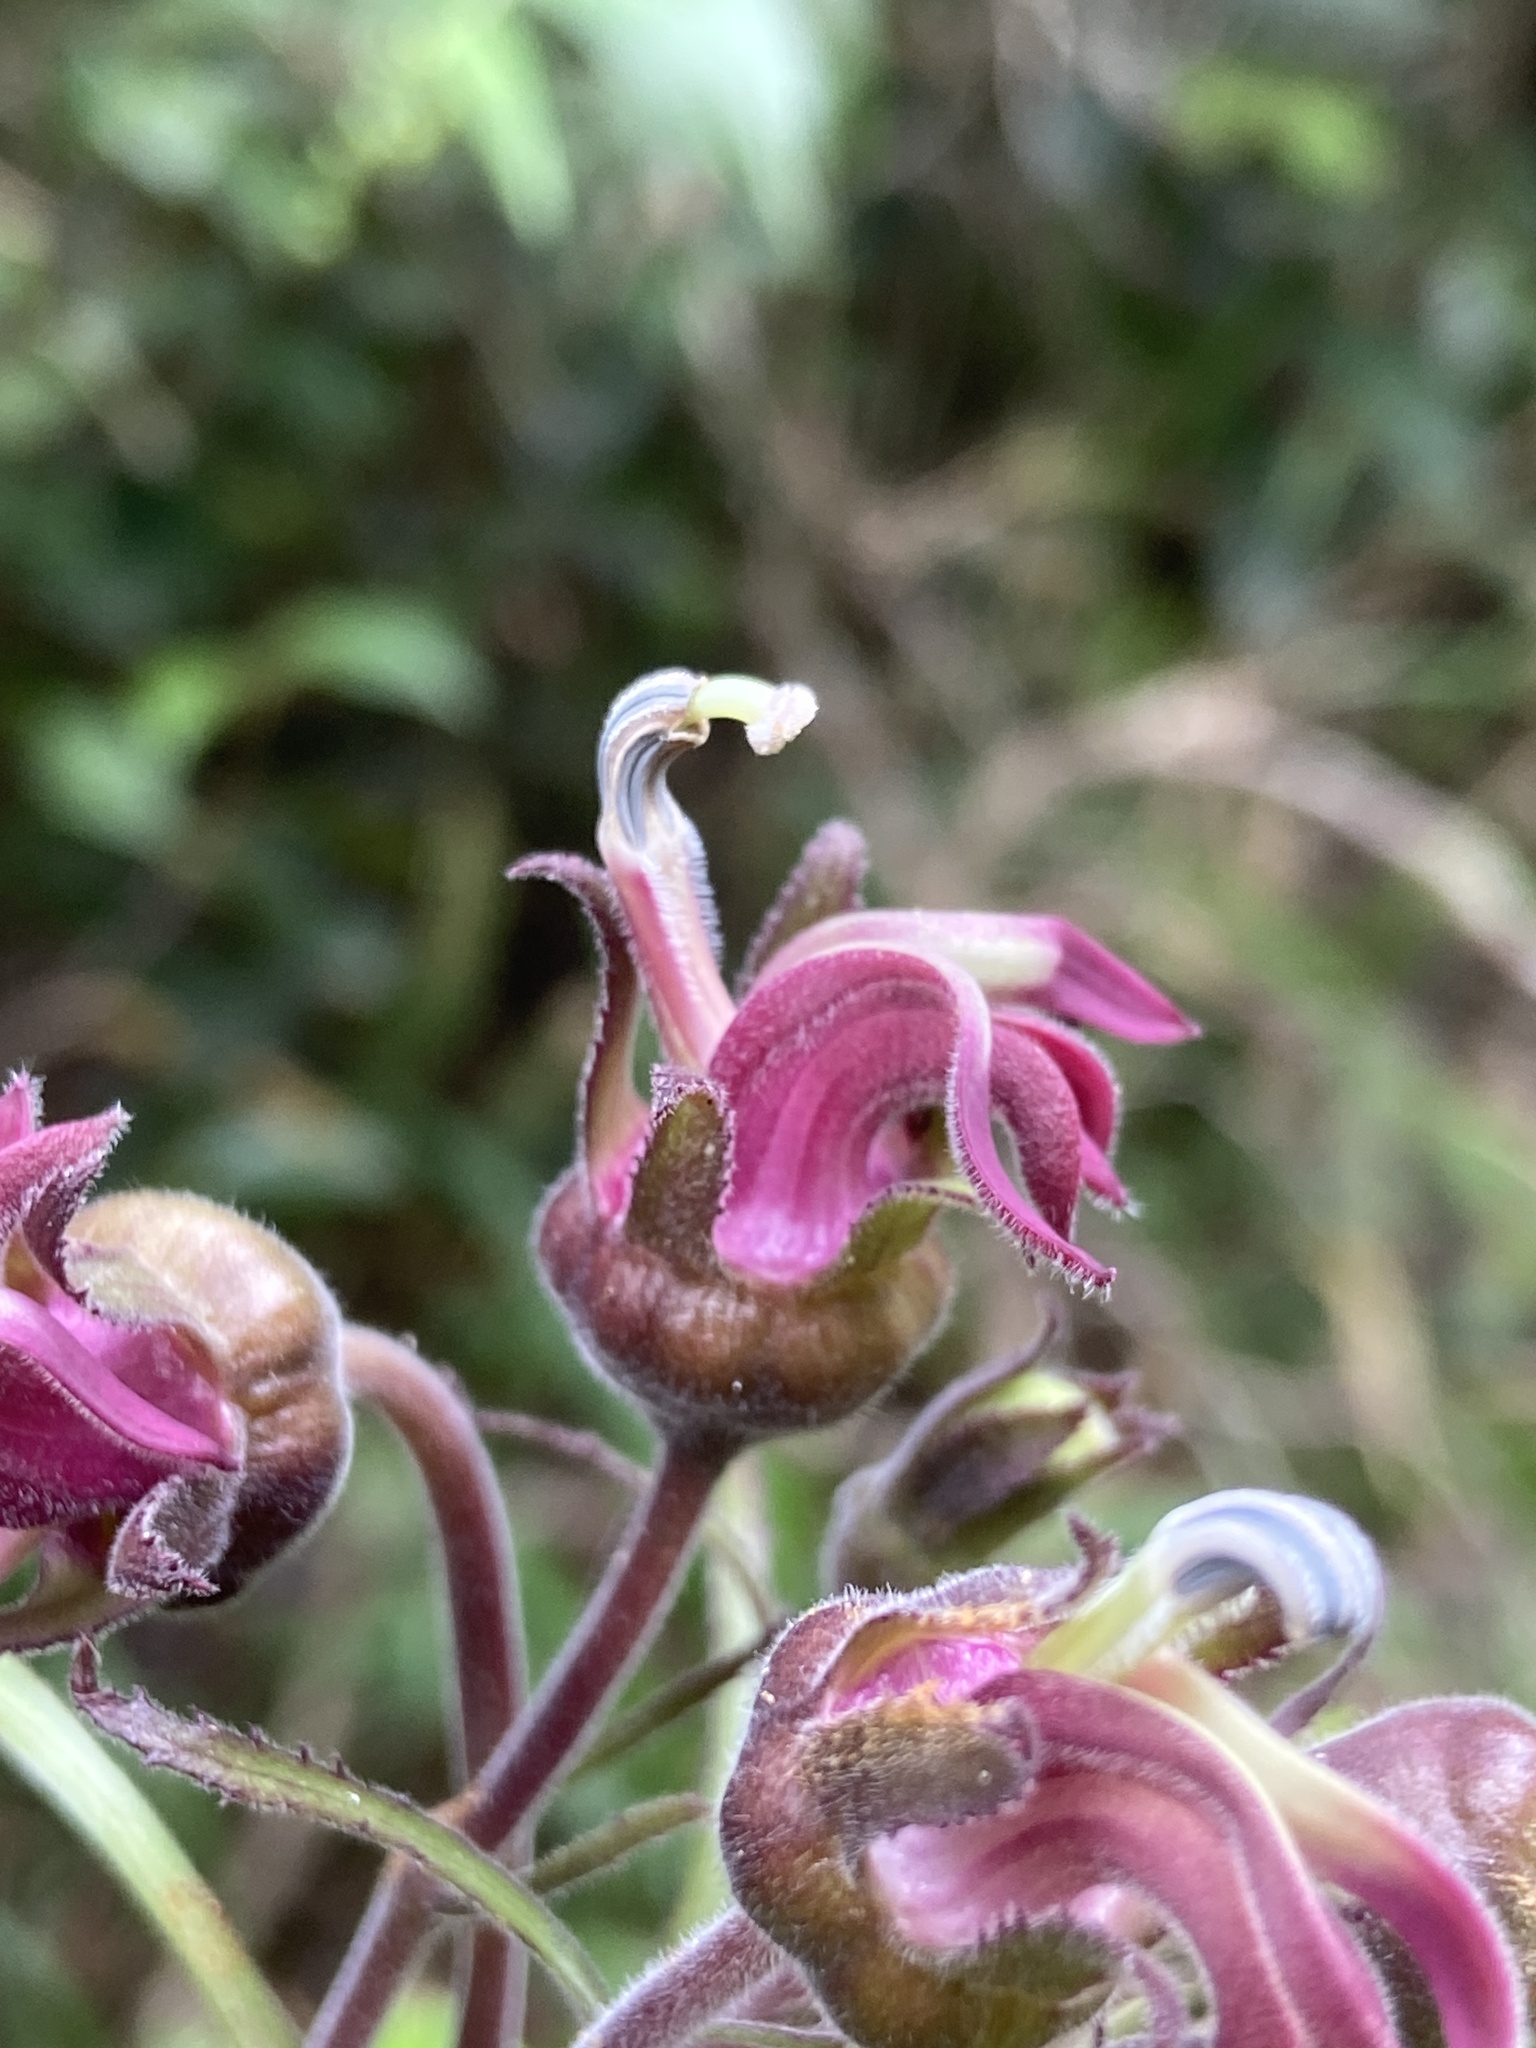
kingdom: Plantae
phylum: Tracheophyta
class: Magnoliopsida
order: Asterales
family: Campanulaceae
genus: Lobelia
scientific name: Lobelia robusta
